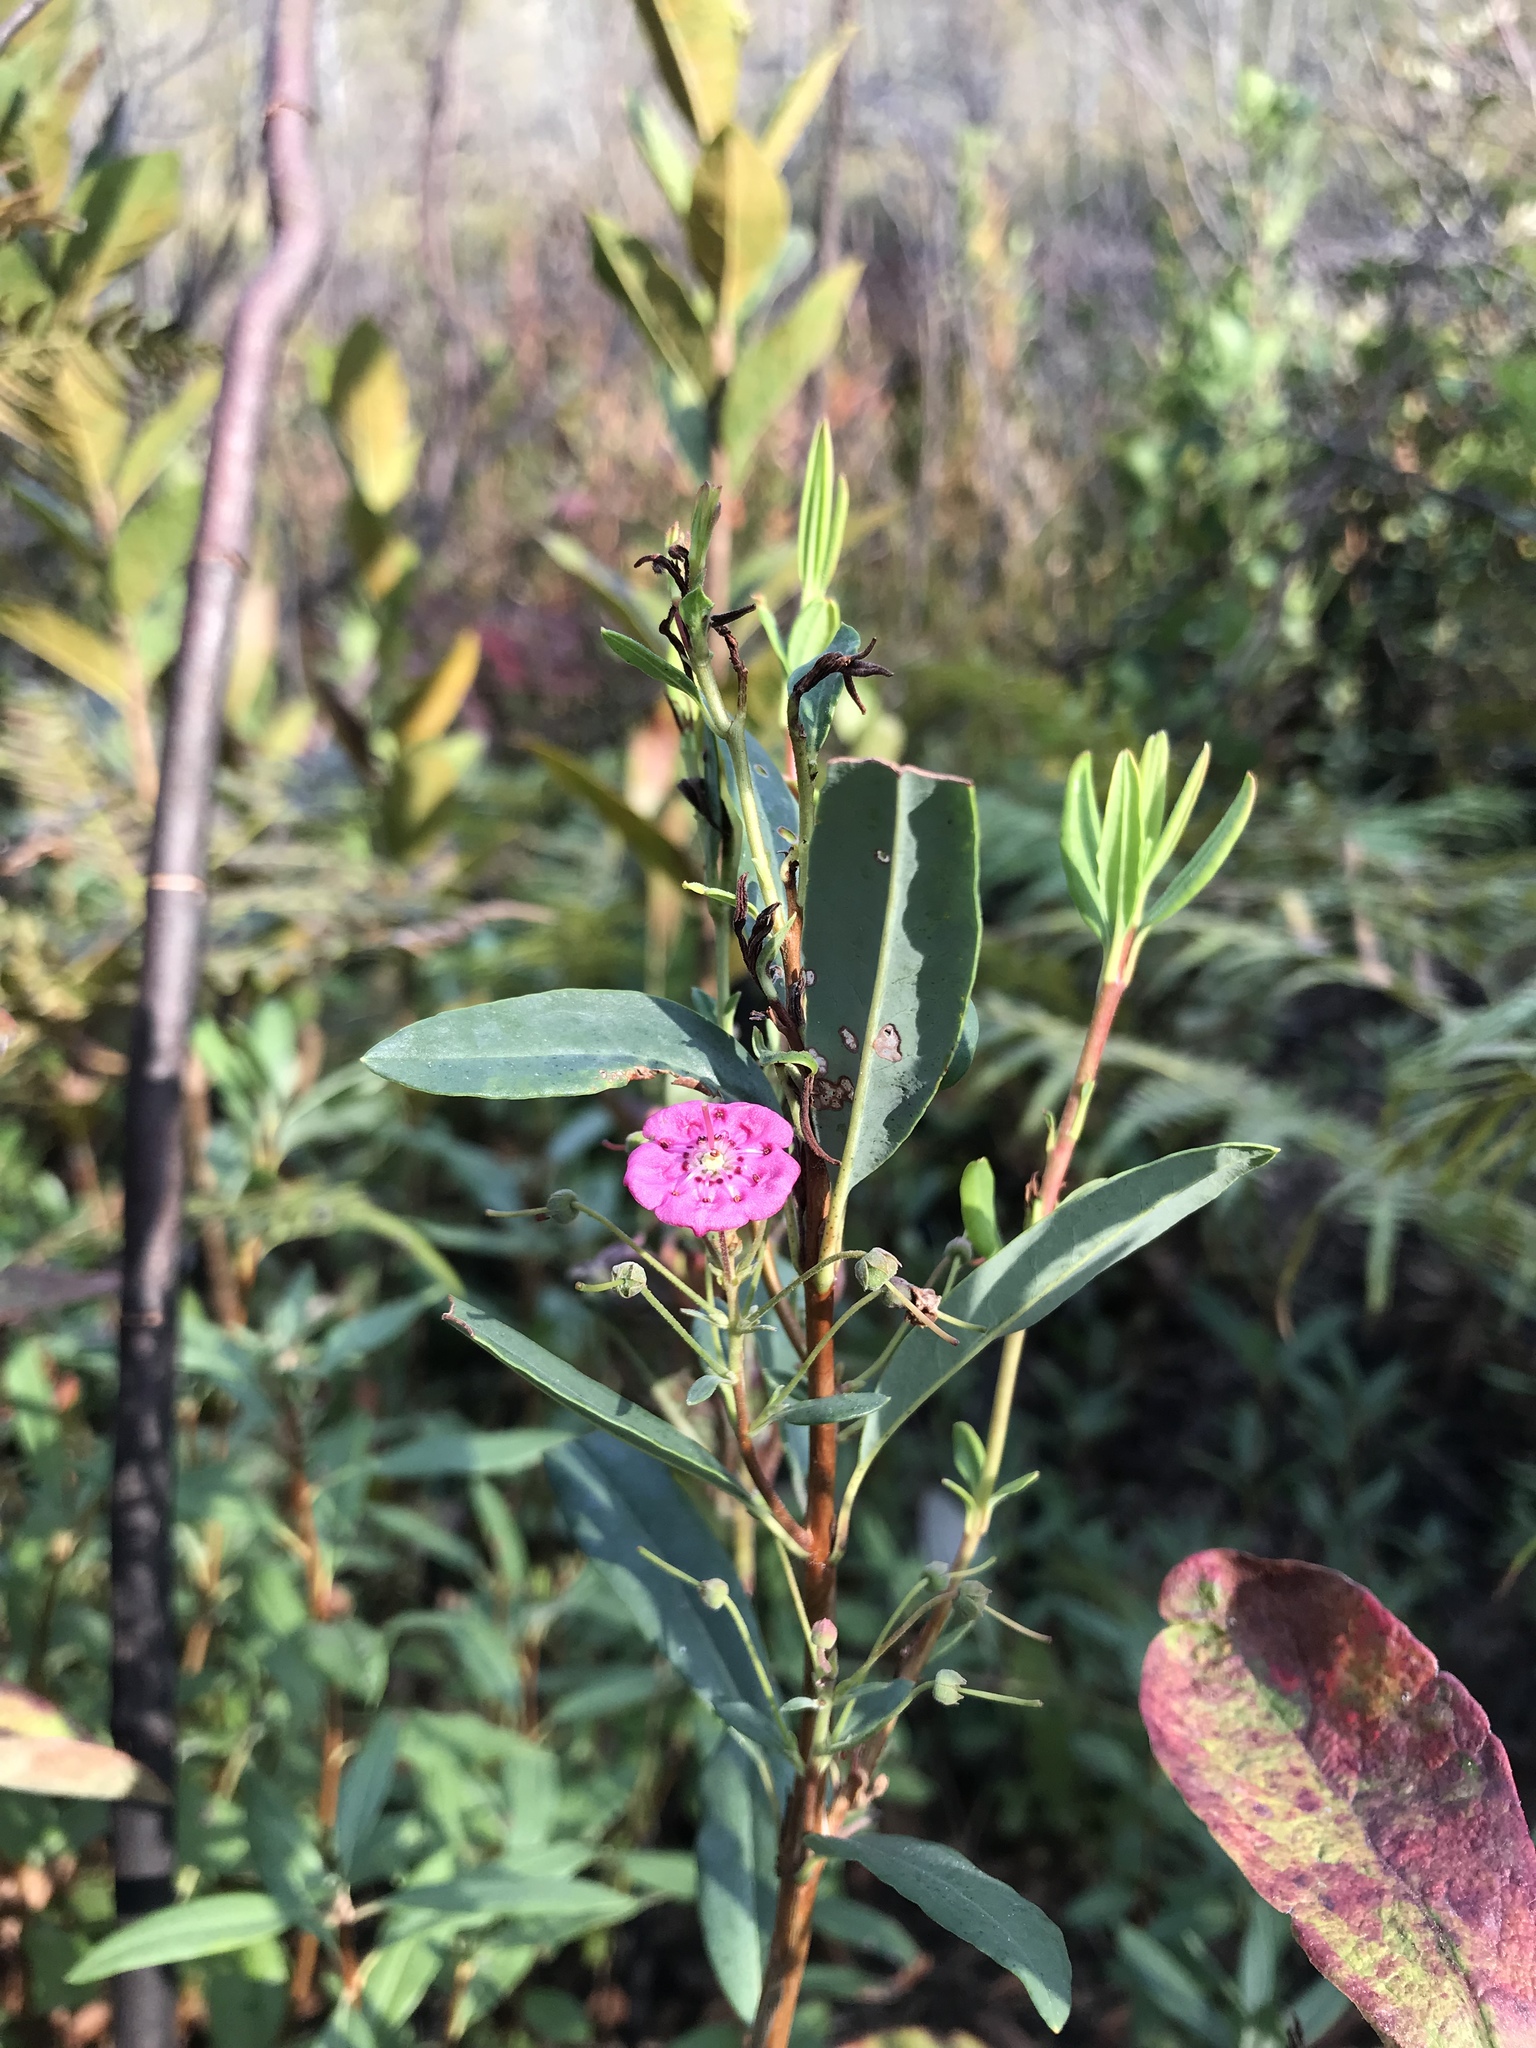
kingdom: Plantae
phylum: Tracheophyta
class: Magnoliopsida
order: Ericales
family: Ericaceae
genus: Kalmia
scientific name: Kalmia angustifolia
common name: Sheep-laurel
